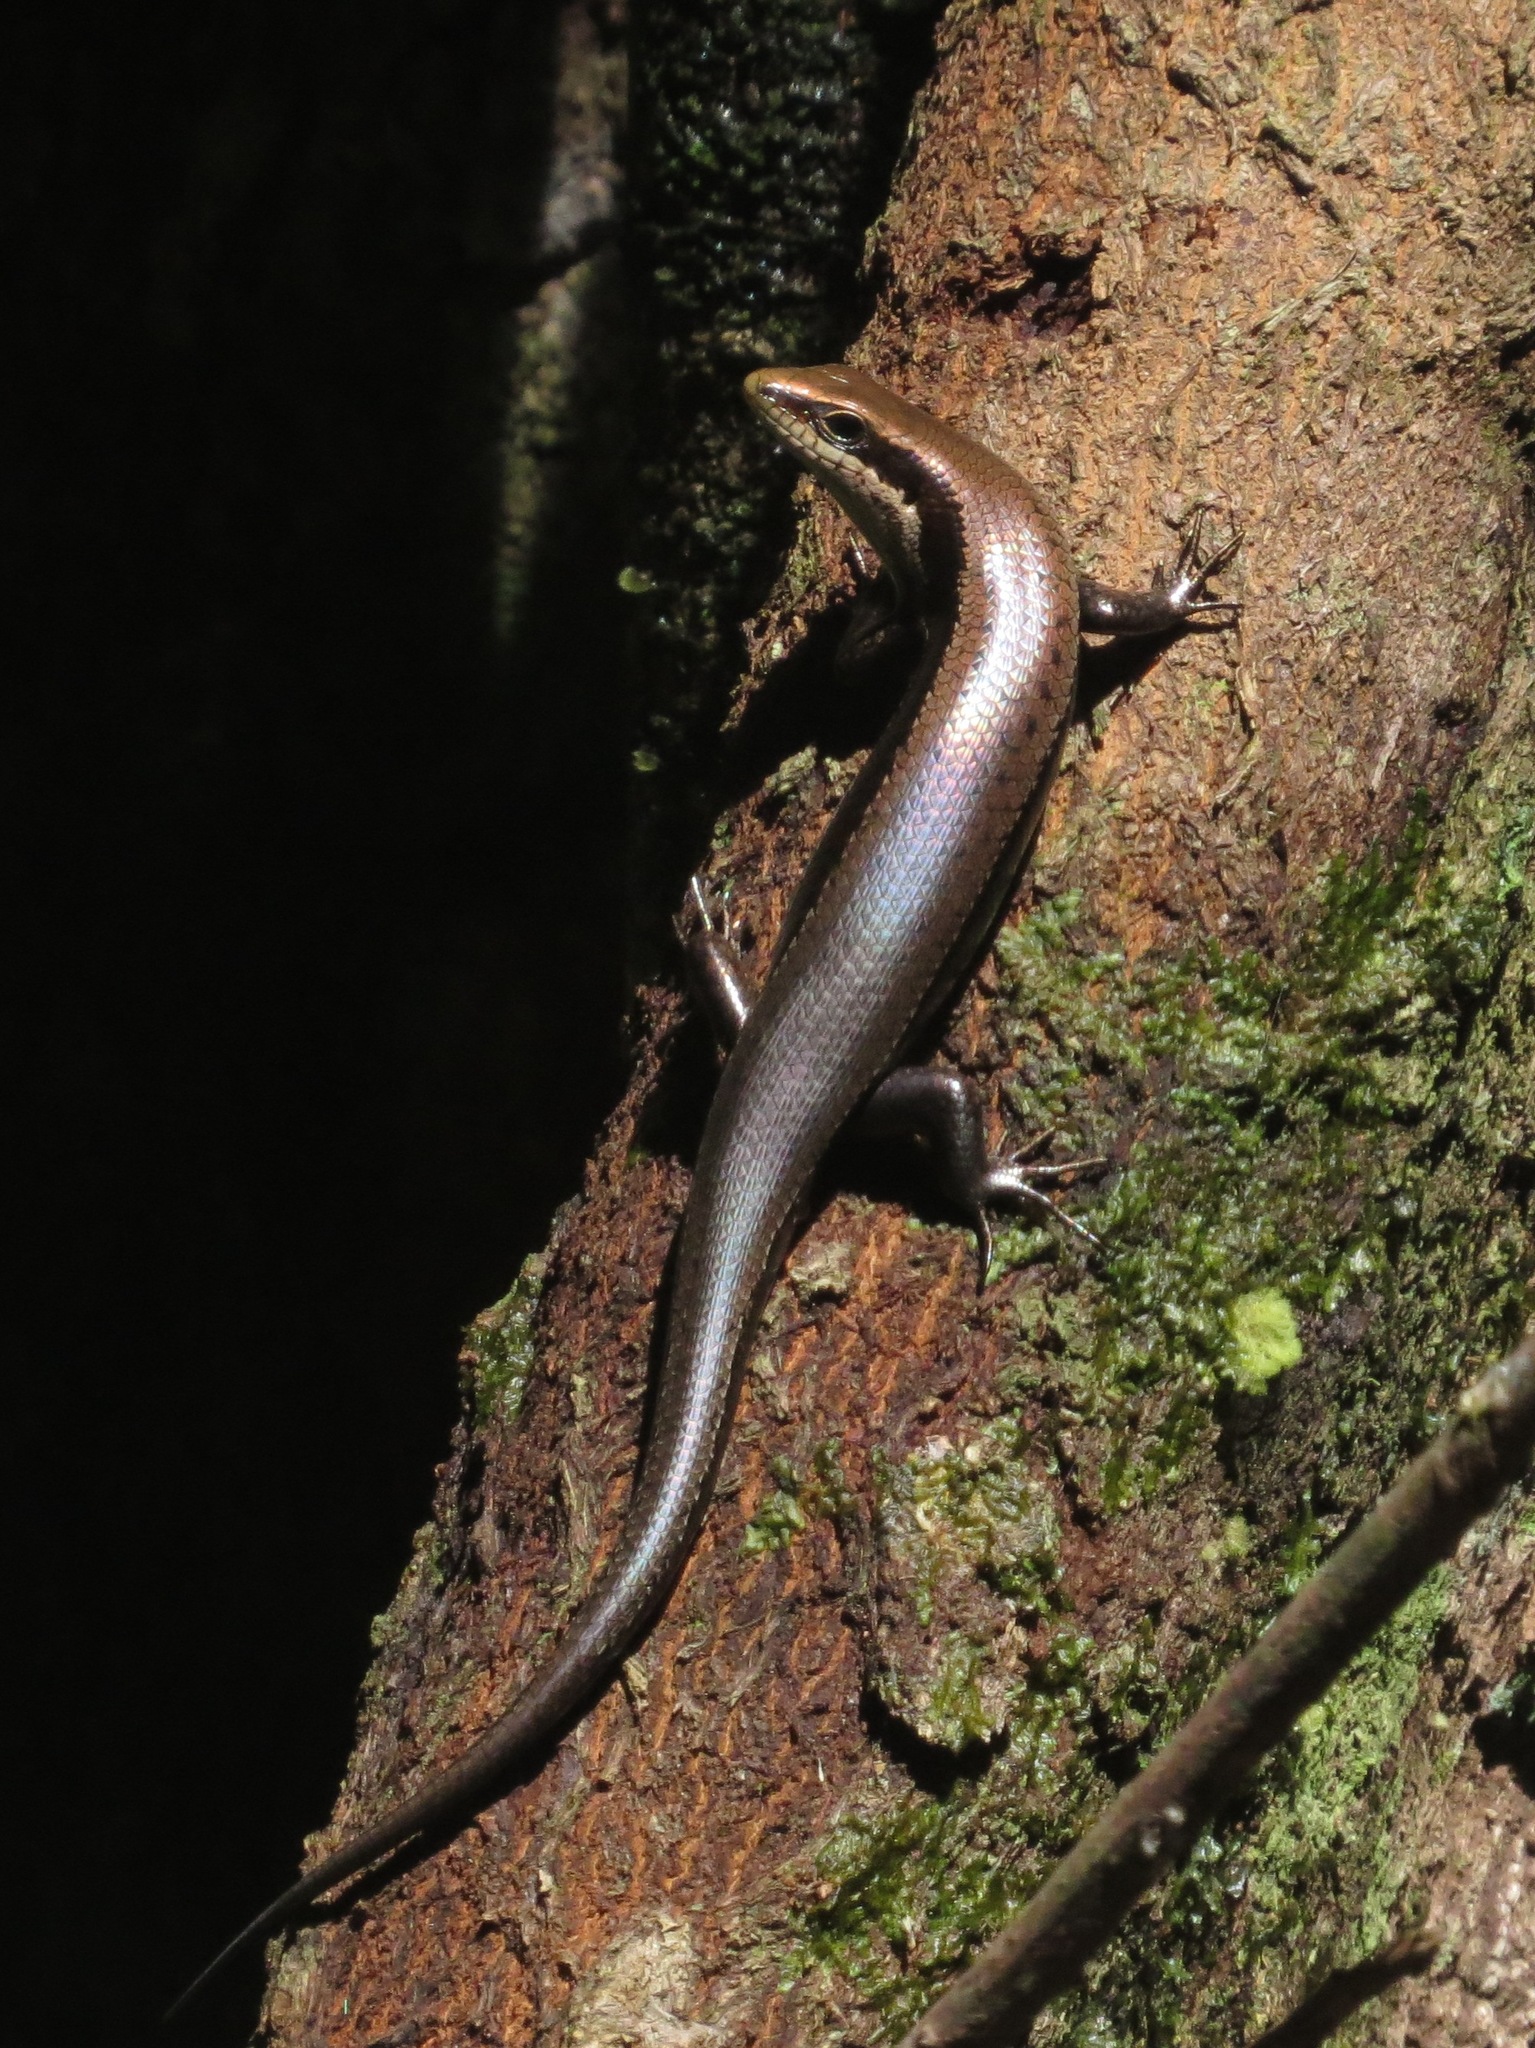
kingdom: Animalia
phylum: Chordata
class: Squamata
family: Scincidae
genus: Copeoglossum
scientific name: Copeoglossum nigropunctatum
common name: Black-spotted skink
